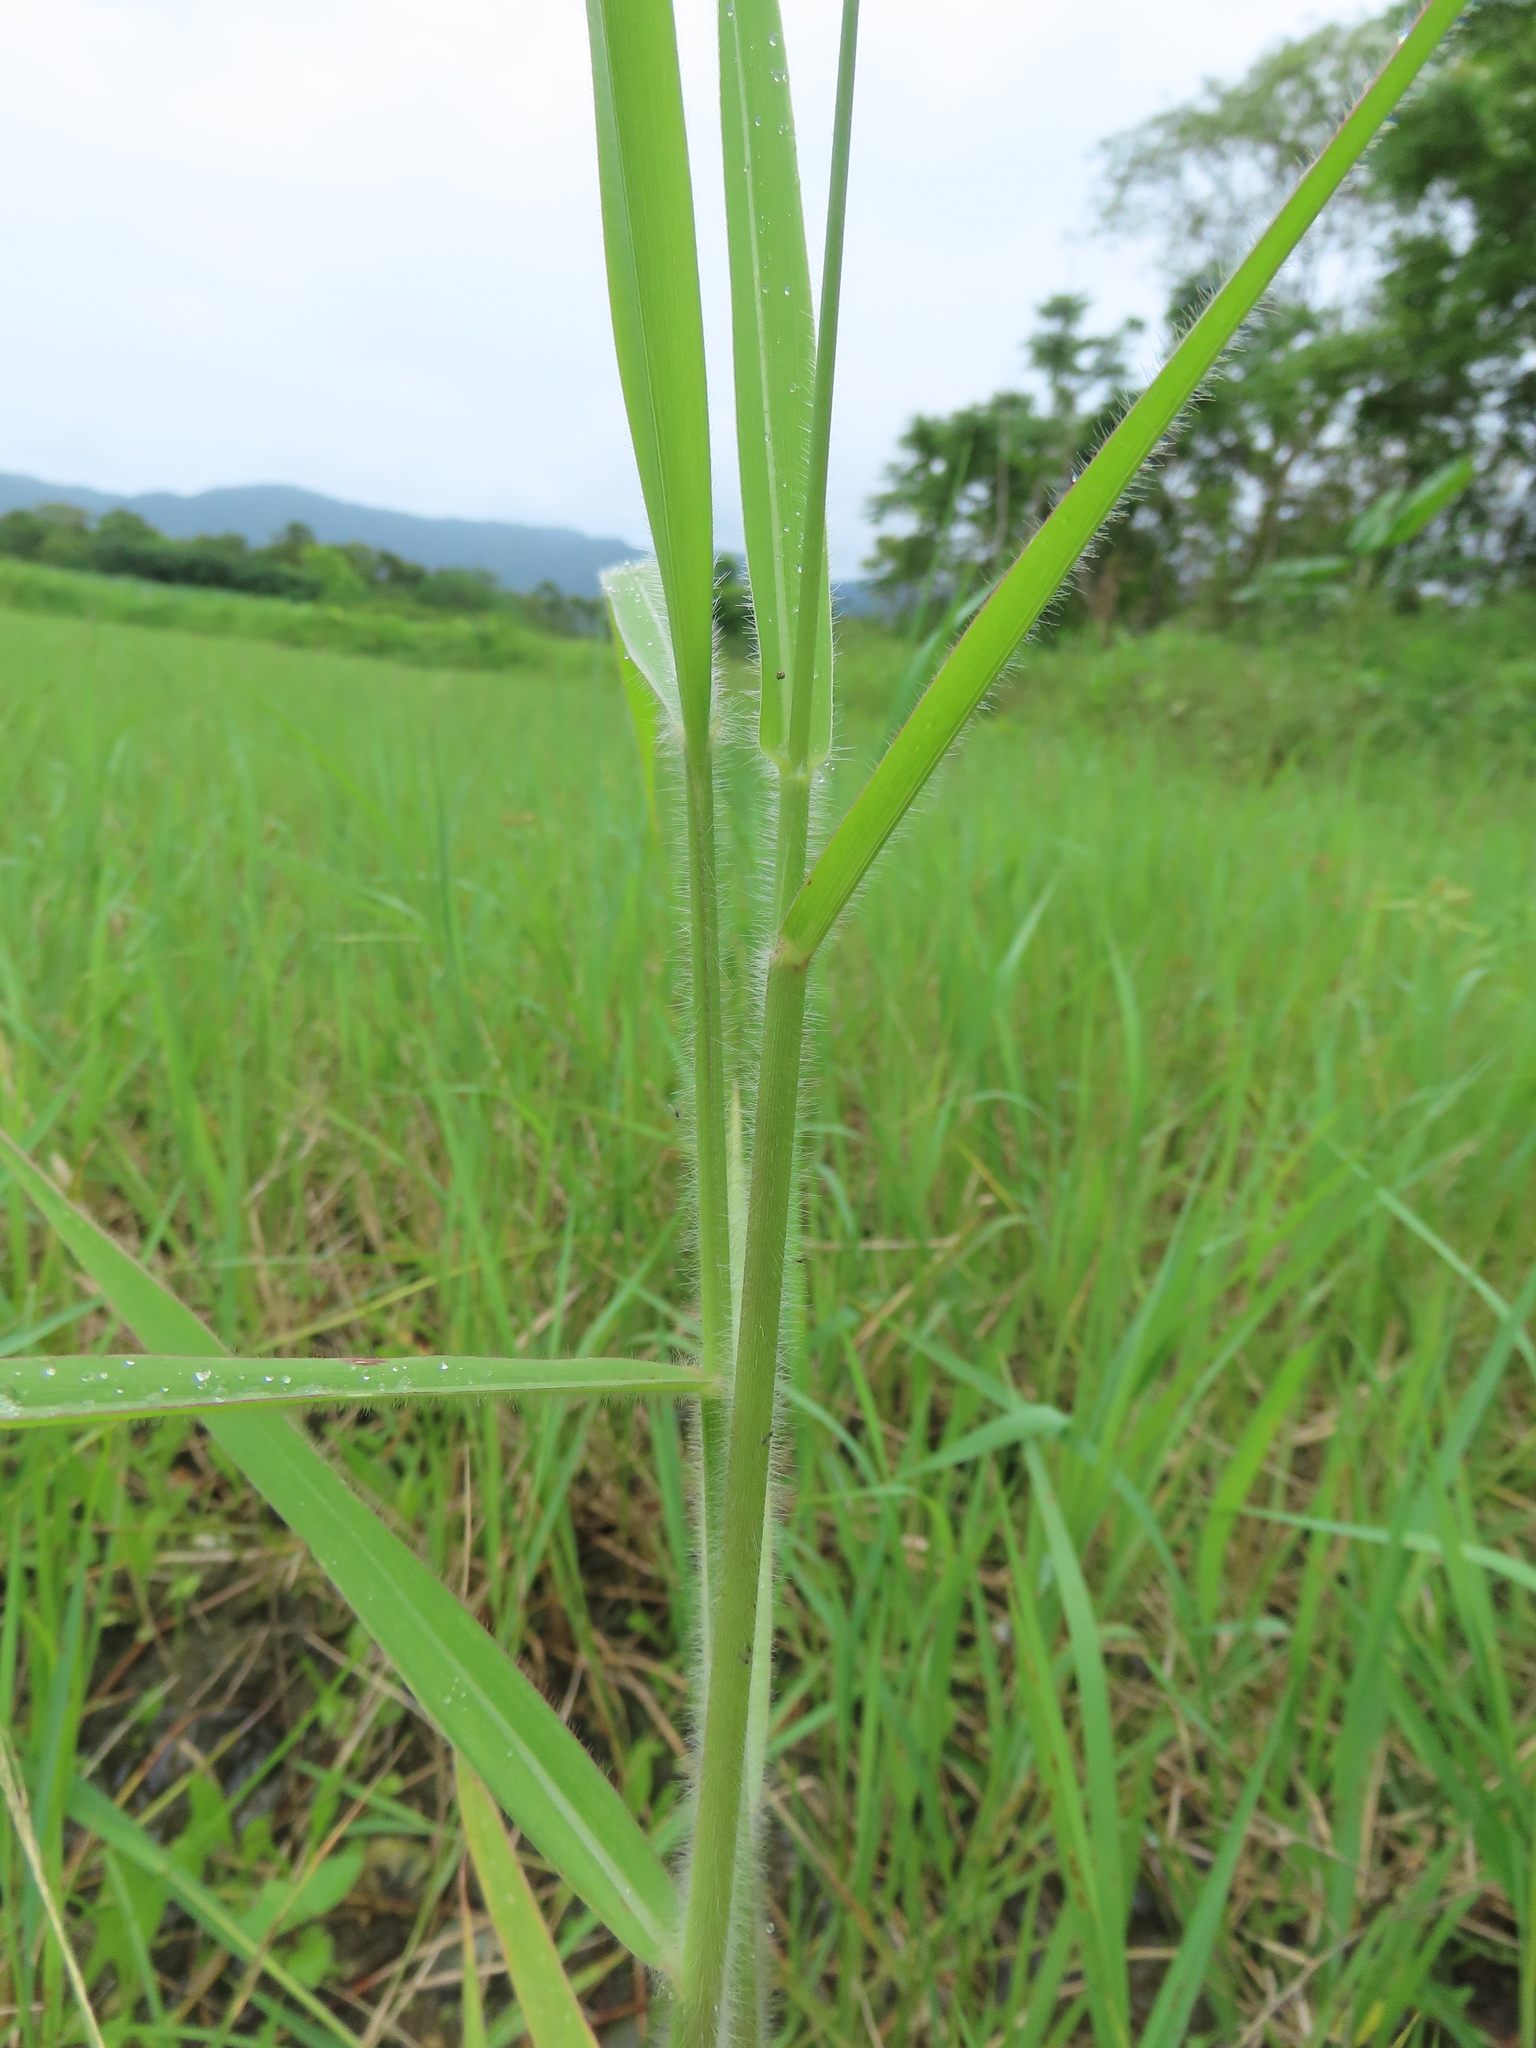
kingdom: Plantae
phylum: Tracheophyta
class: Liliopsida
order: Poales
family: Poaceae
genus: Urochloa
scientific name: Urochloa mutica
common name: Para grass
